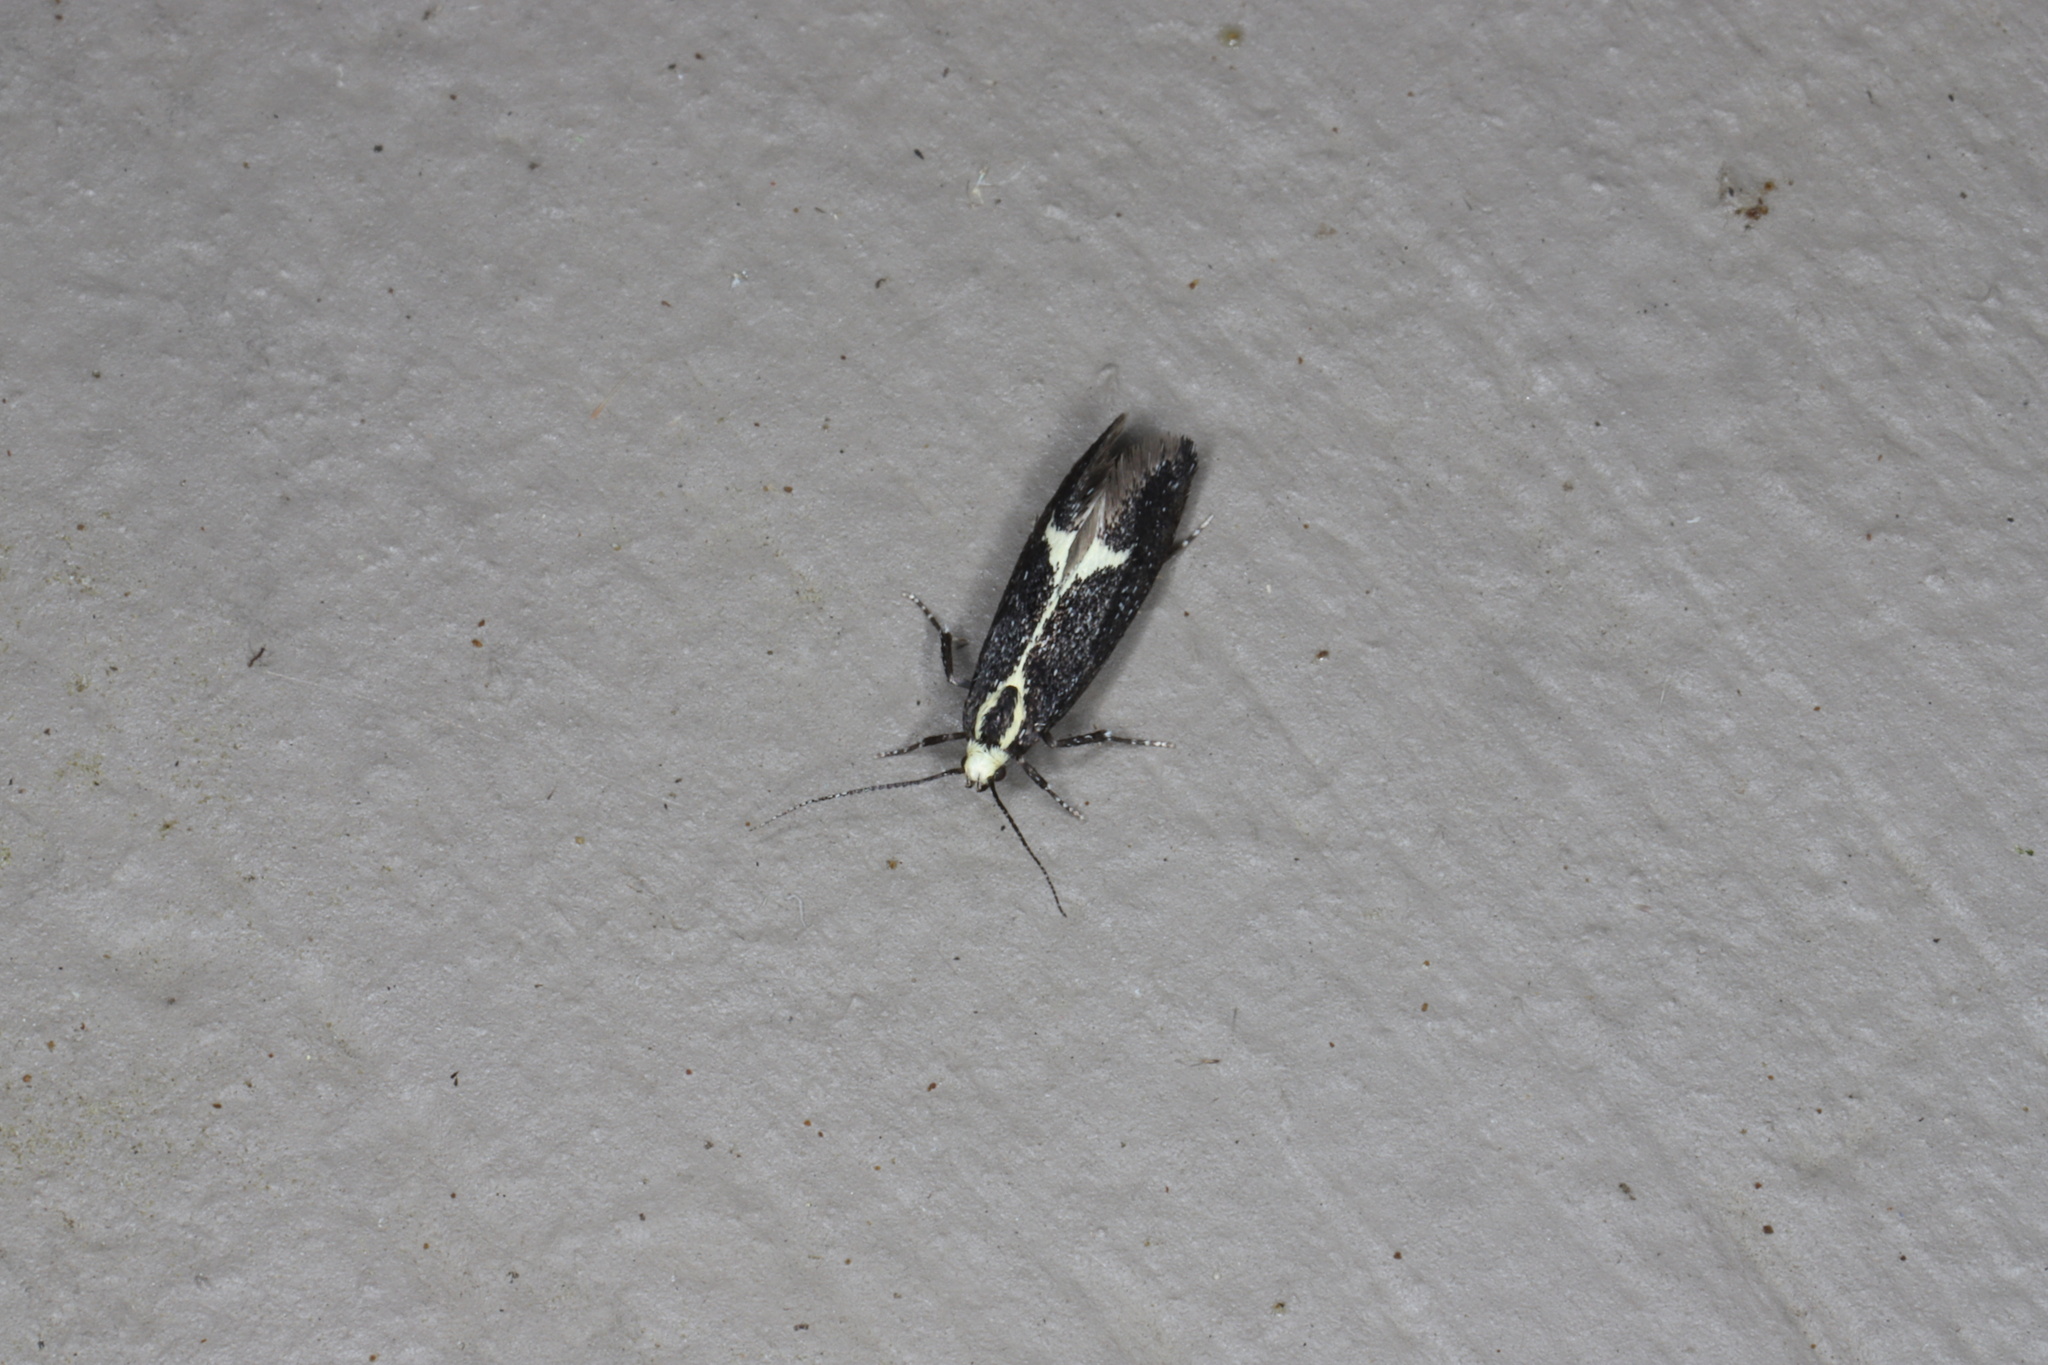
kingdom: Animalia
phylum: Arthropoda
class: Insecta
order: Lepidoptera
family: Oecophoridae
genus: Polix
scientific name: Polix coloradella
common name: Skunk moth
